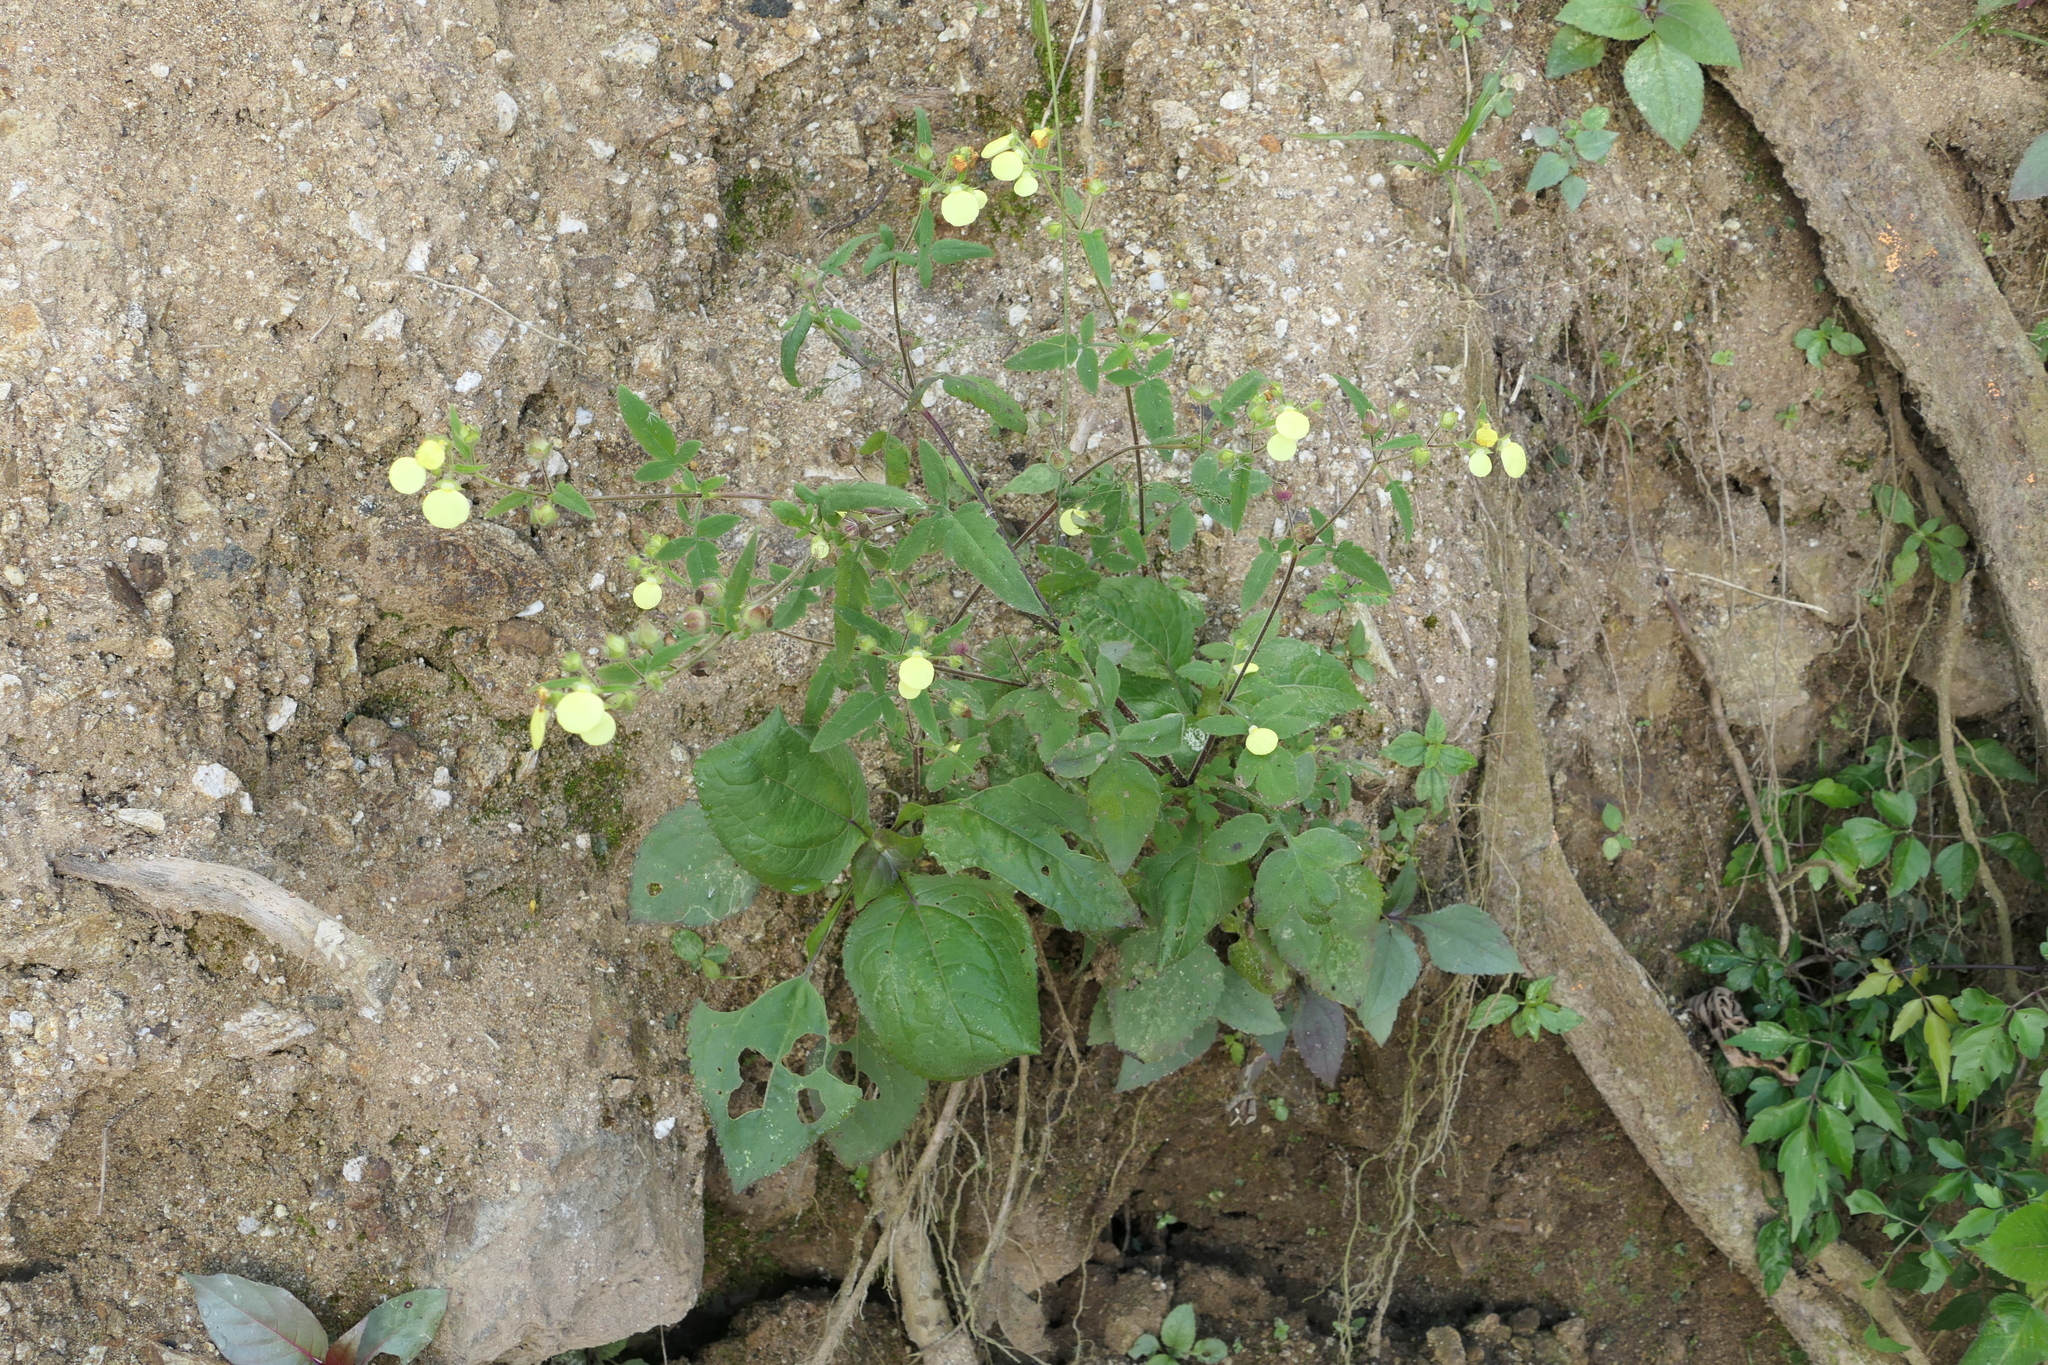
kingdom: Plantae
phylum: Tracheophyta
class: Magnoliopsida
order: Lamiales
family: Calceolariaceae
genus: Calceolaria
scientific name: Calceolaria tripartita
